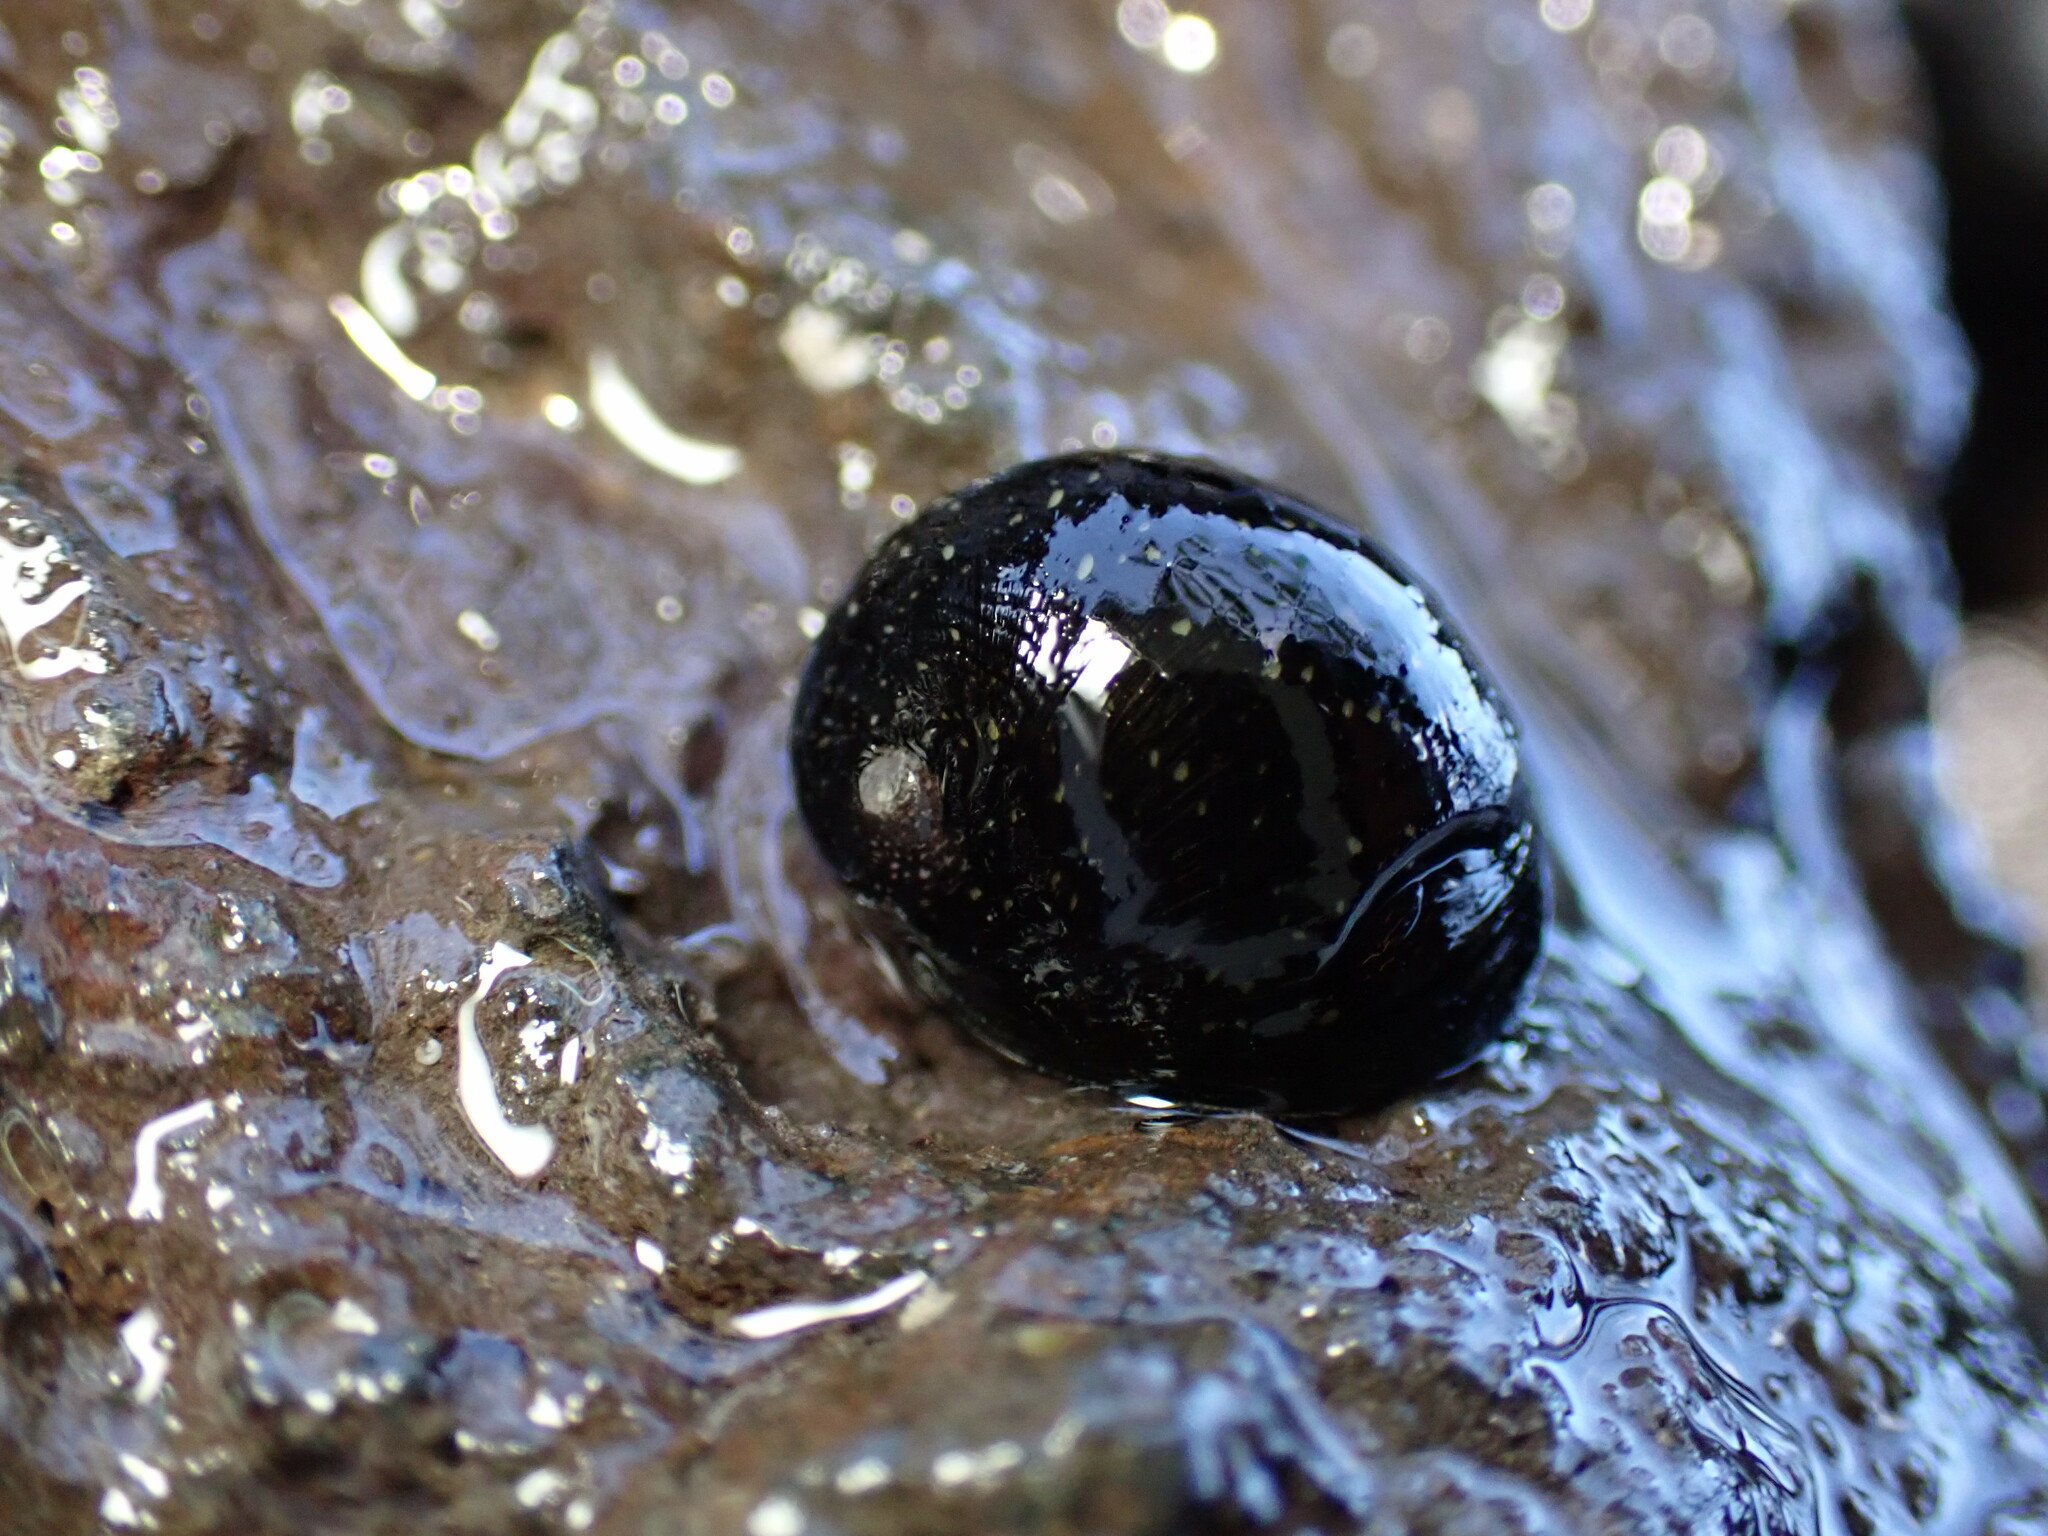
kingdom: Animalia
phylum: Mollusca
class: Gastropoda
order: Cycloneritida
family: Neritidae
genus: Neripteron
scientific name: Neripteron neglectum
